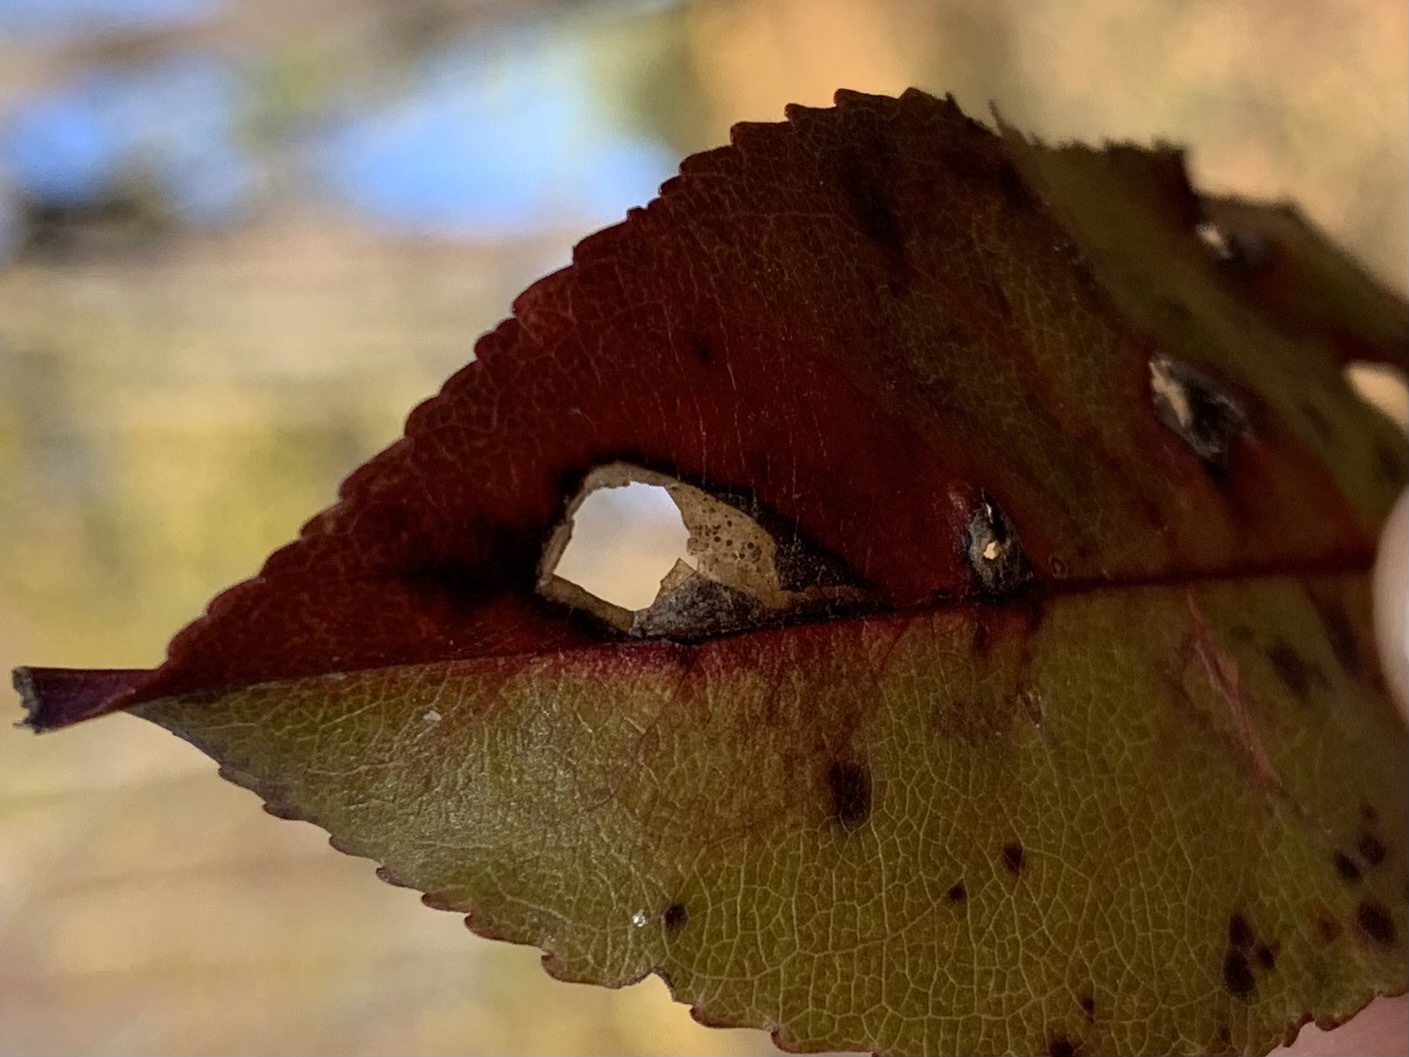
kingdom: Animalia
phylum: Arthropoda
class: Insecta
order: Lepidoptera
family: Heliozelidae
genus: Coptodisca
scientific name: Coptodisca splendoriferella
